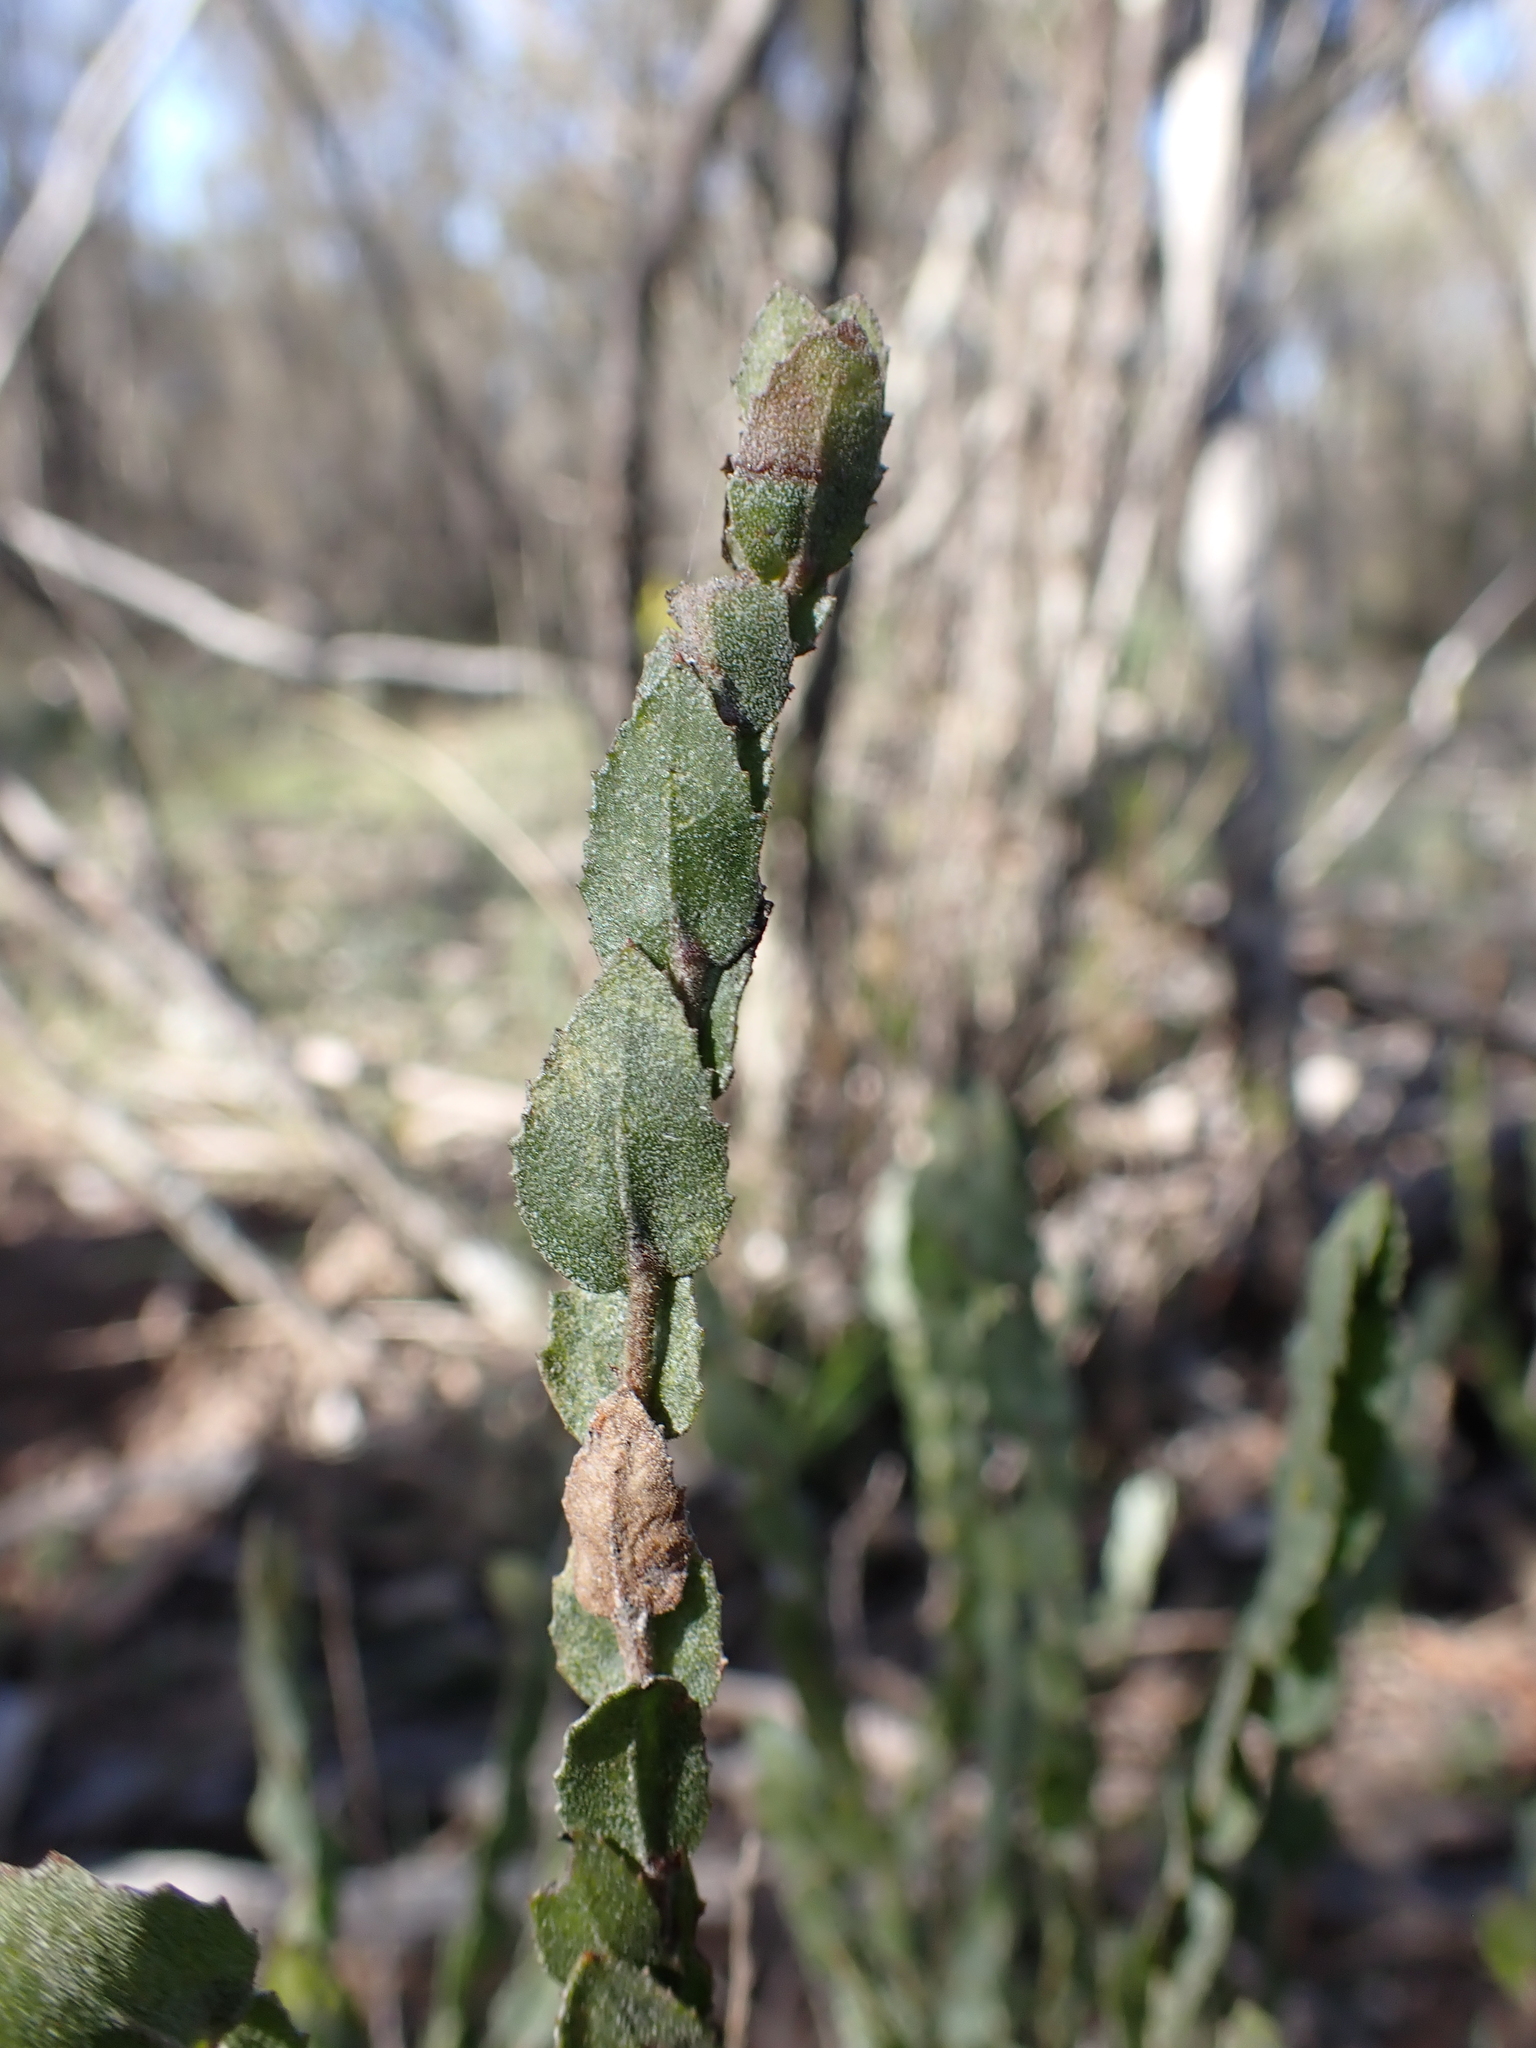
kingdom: Plantae
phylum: Tracheophyta
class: Magnoliopsida
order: Asterales
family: Goodeniaceae
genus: Goodenia
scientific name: Goodenia varia
